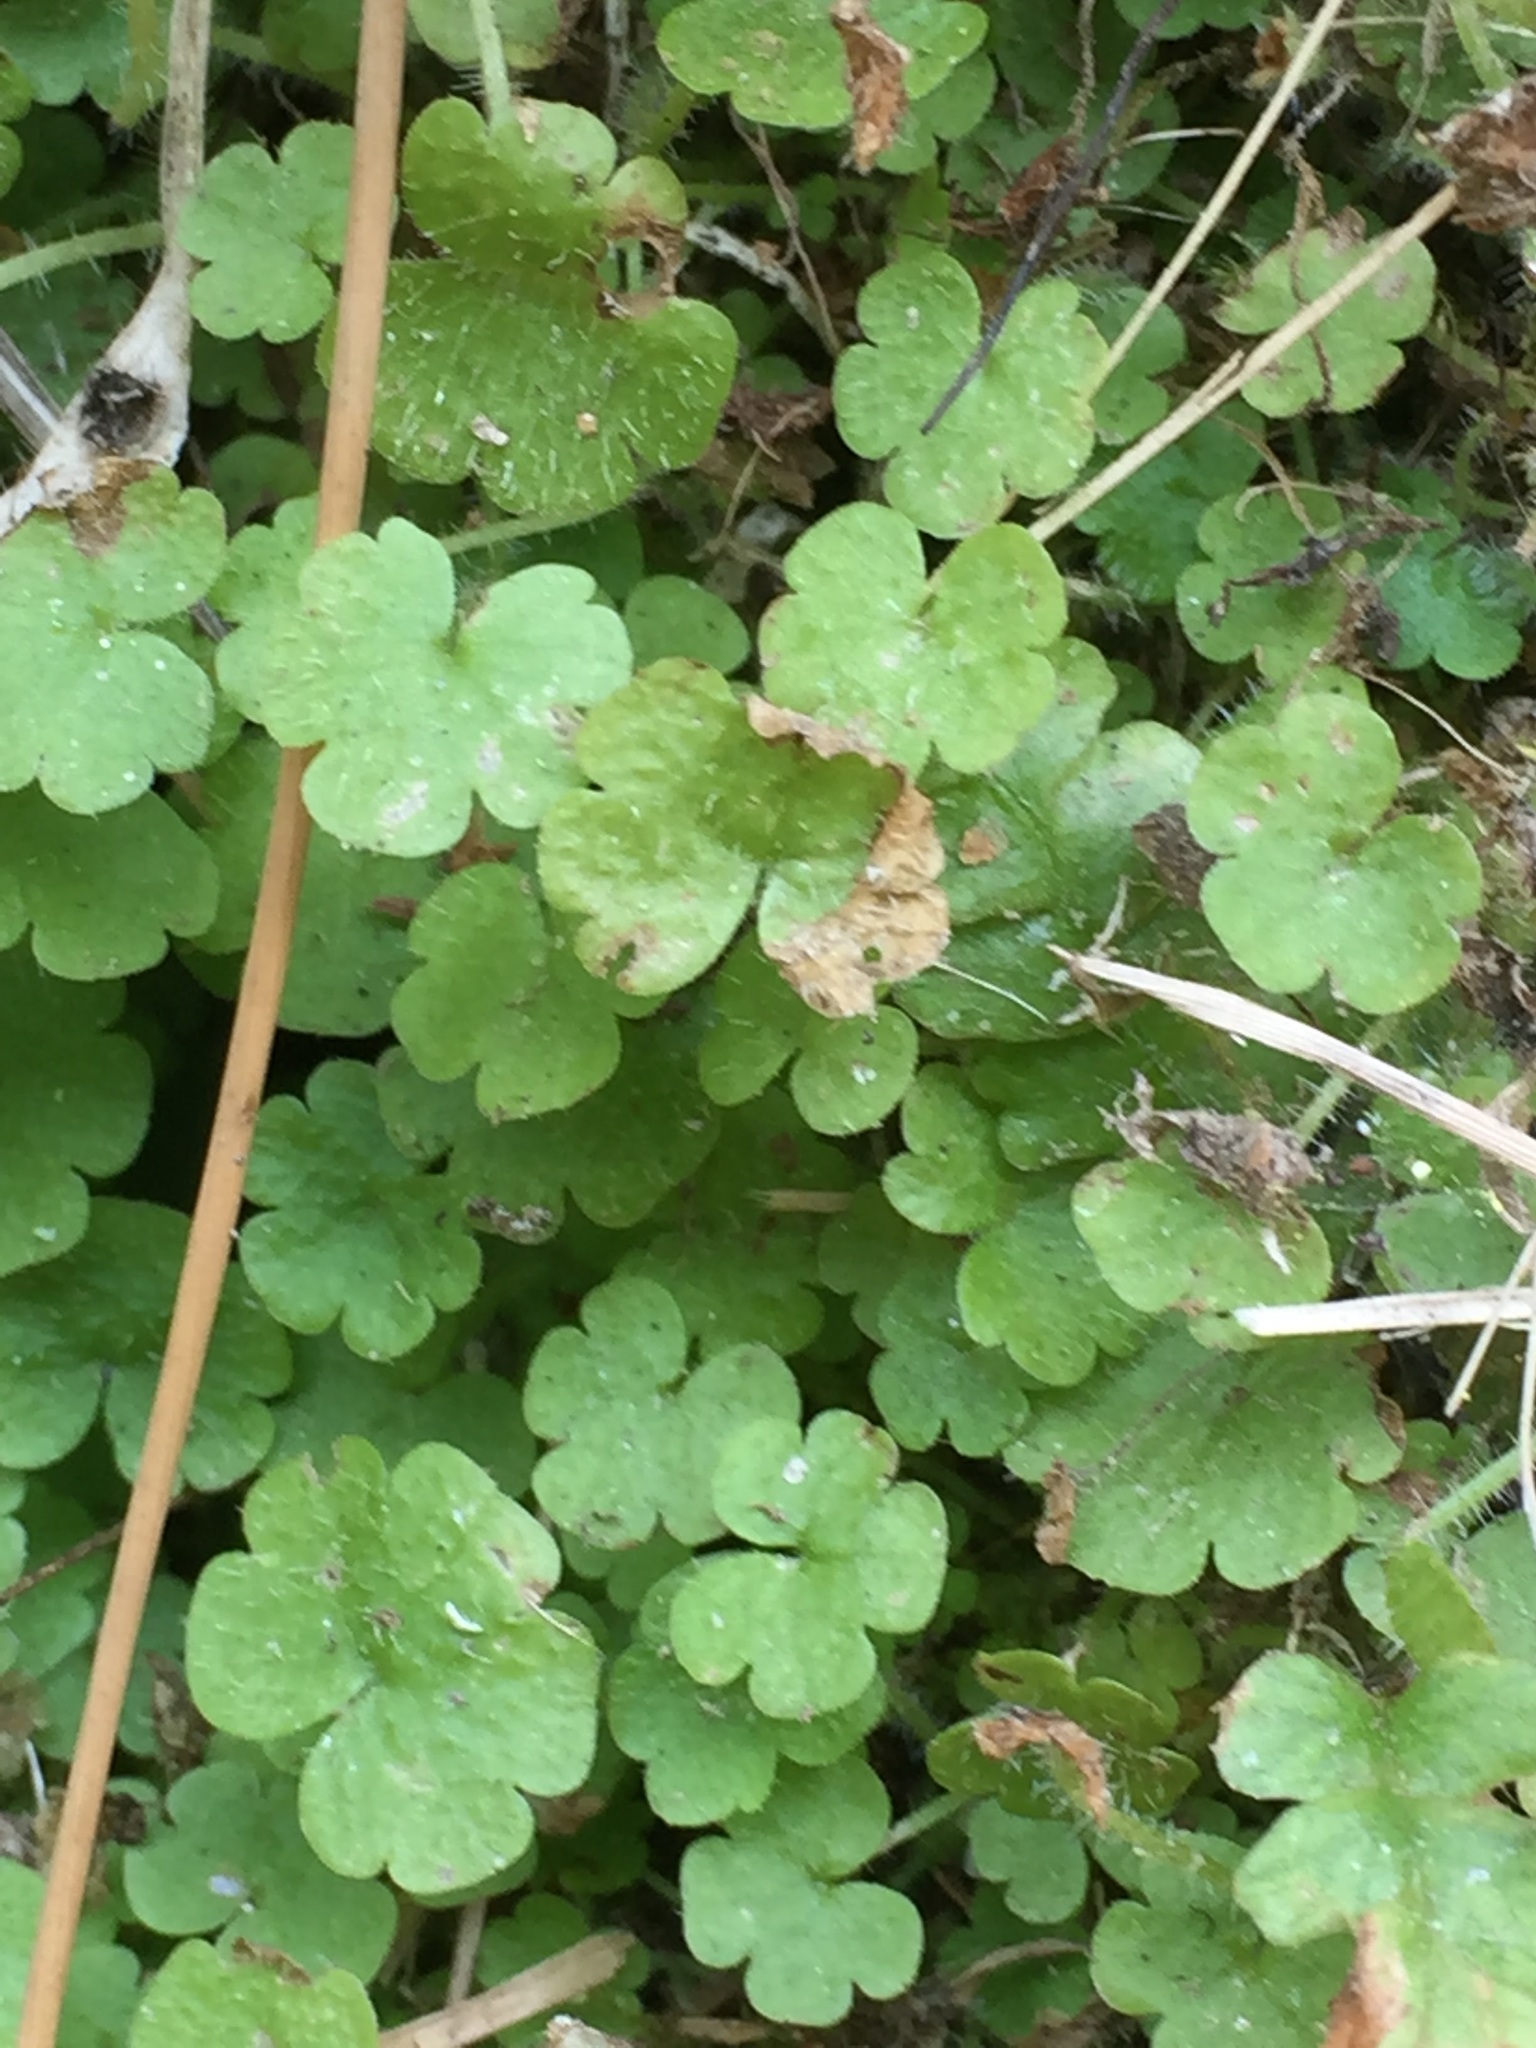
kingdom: Plantae
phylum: Tracheophyta
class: Magnoliopsida
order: Lamiales
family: Plantaginaceae
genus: Sibthorpia
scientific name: Sibthorpia europaea
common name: Cornish moneywort
